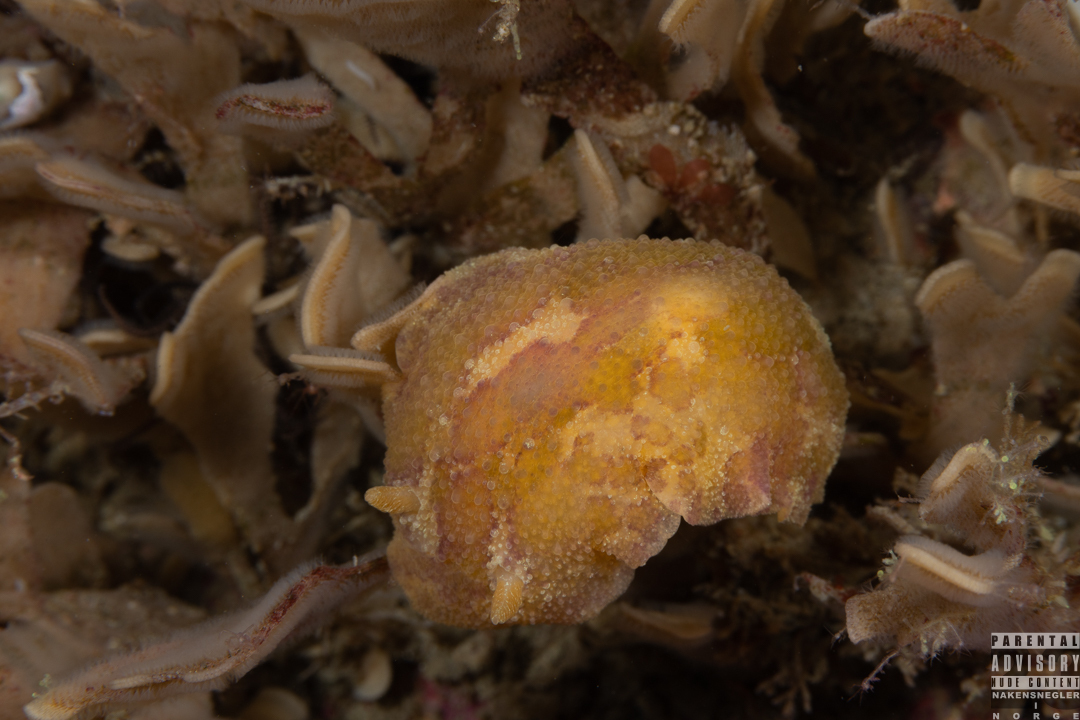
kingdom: Animalia
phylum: Mollusca
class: Gastropoda
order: Nudibranchia
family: Dorididae
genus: Doris
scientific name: Doris pseudoargus
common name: Sea lemon
